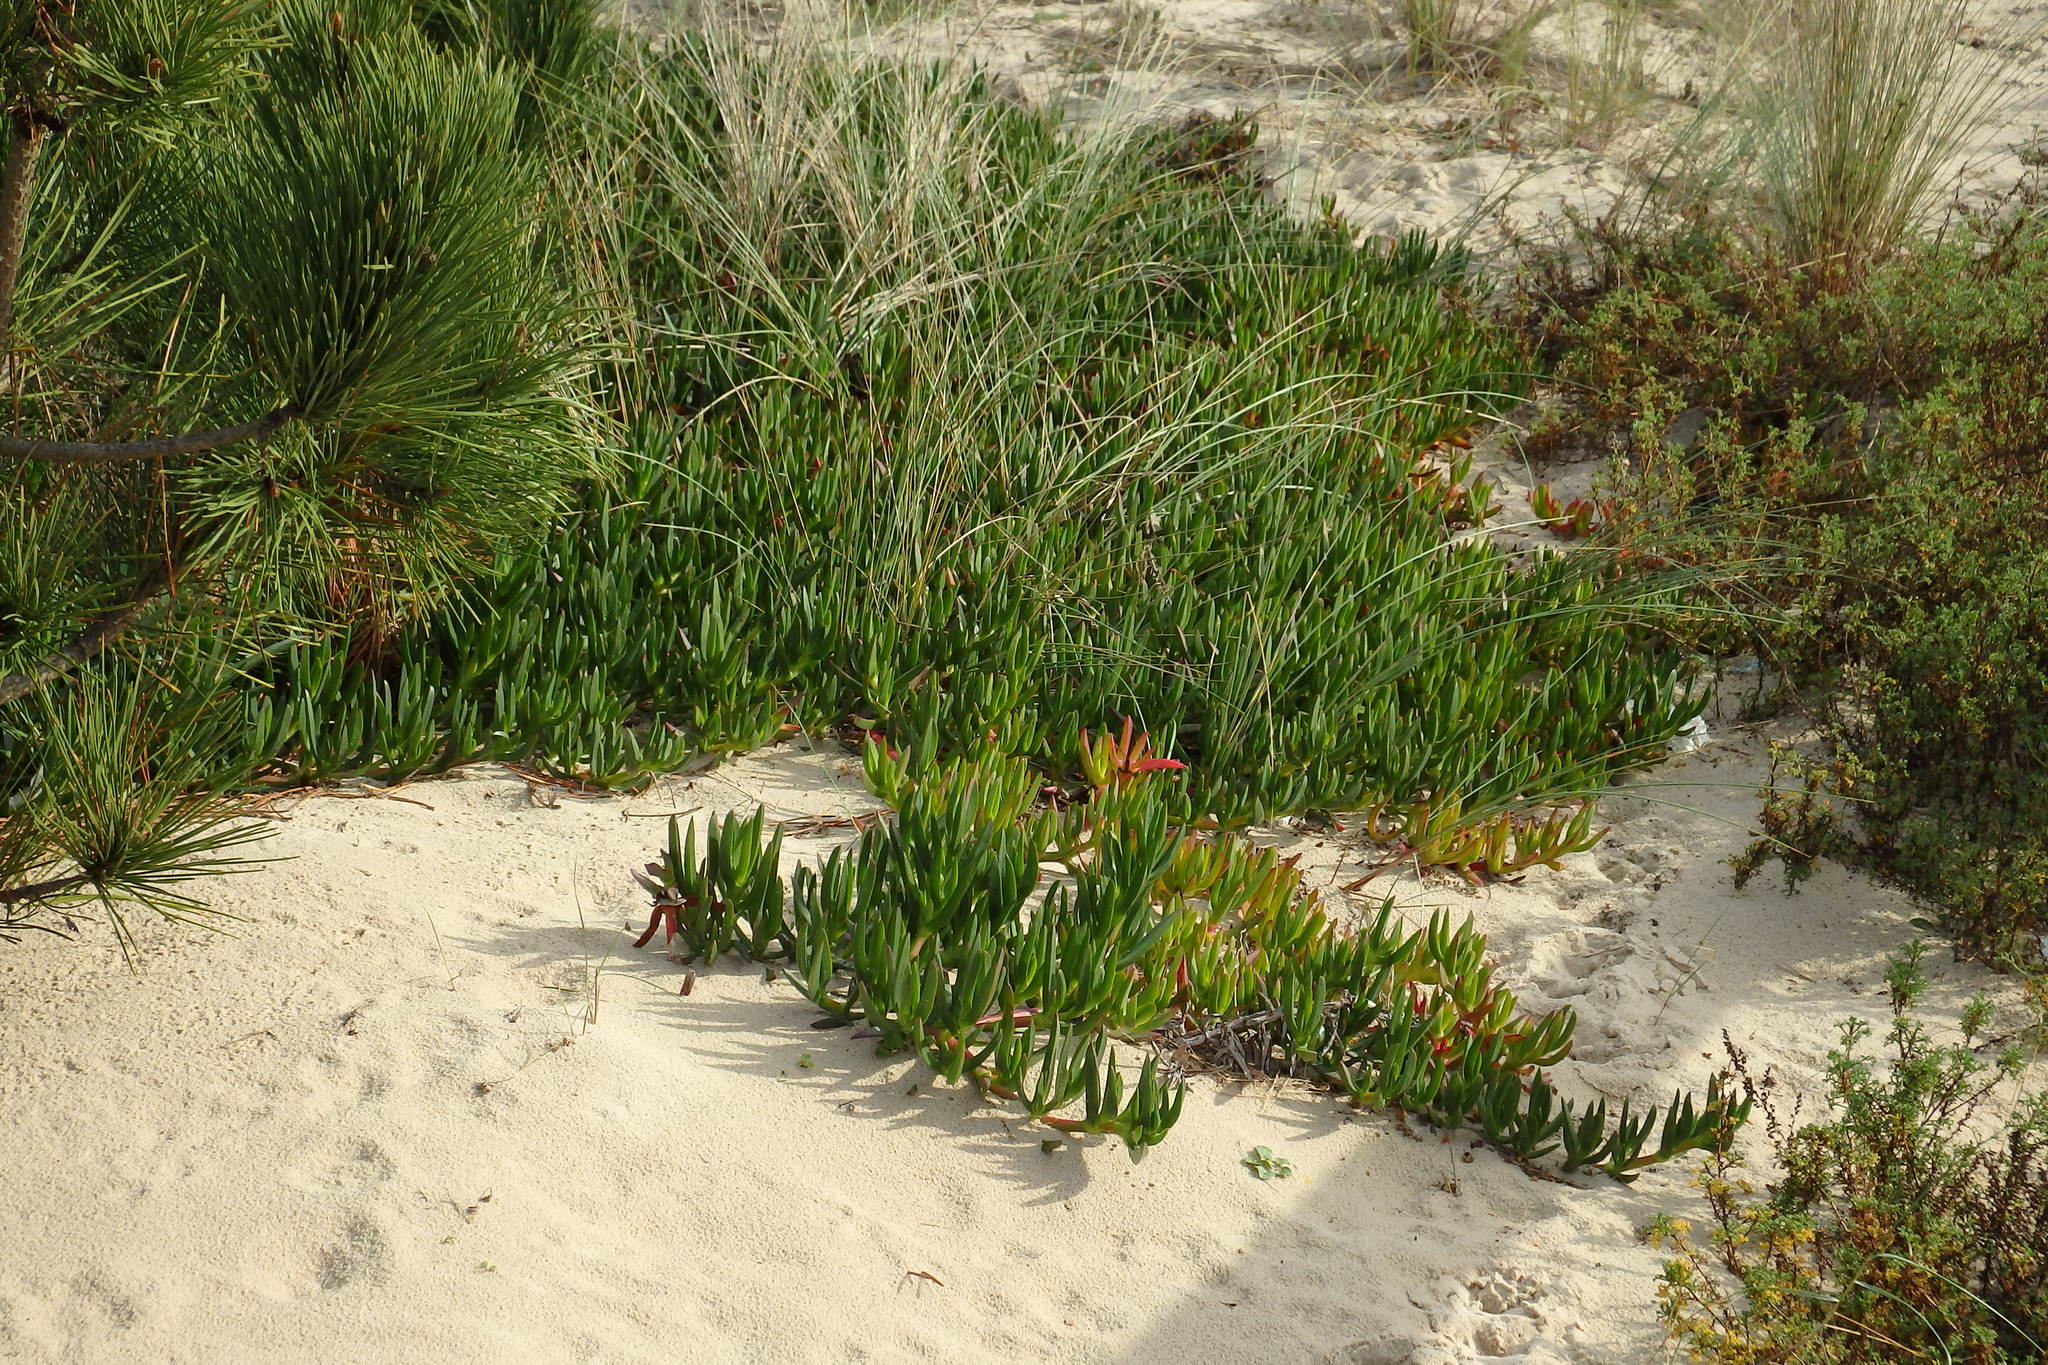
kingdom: Plantae
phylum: Tracheophyta
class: Magnoliopsida
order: Caryophyllales
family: Aizoaceae
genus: Carpobrotus
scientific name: Carpobrotus edulis
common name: Hottentot-fig
